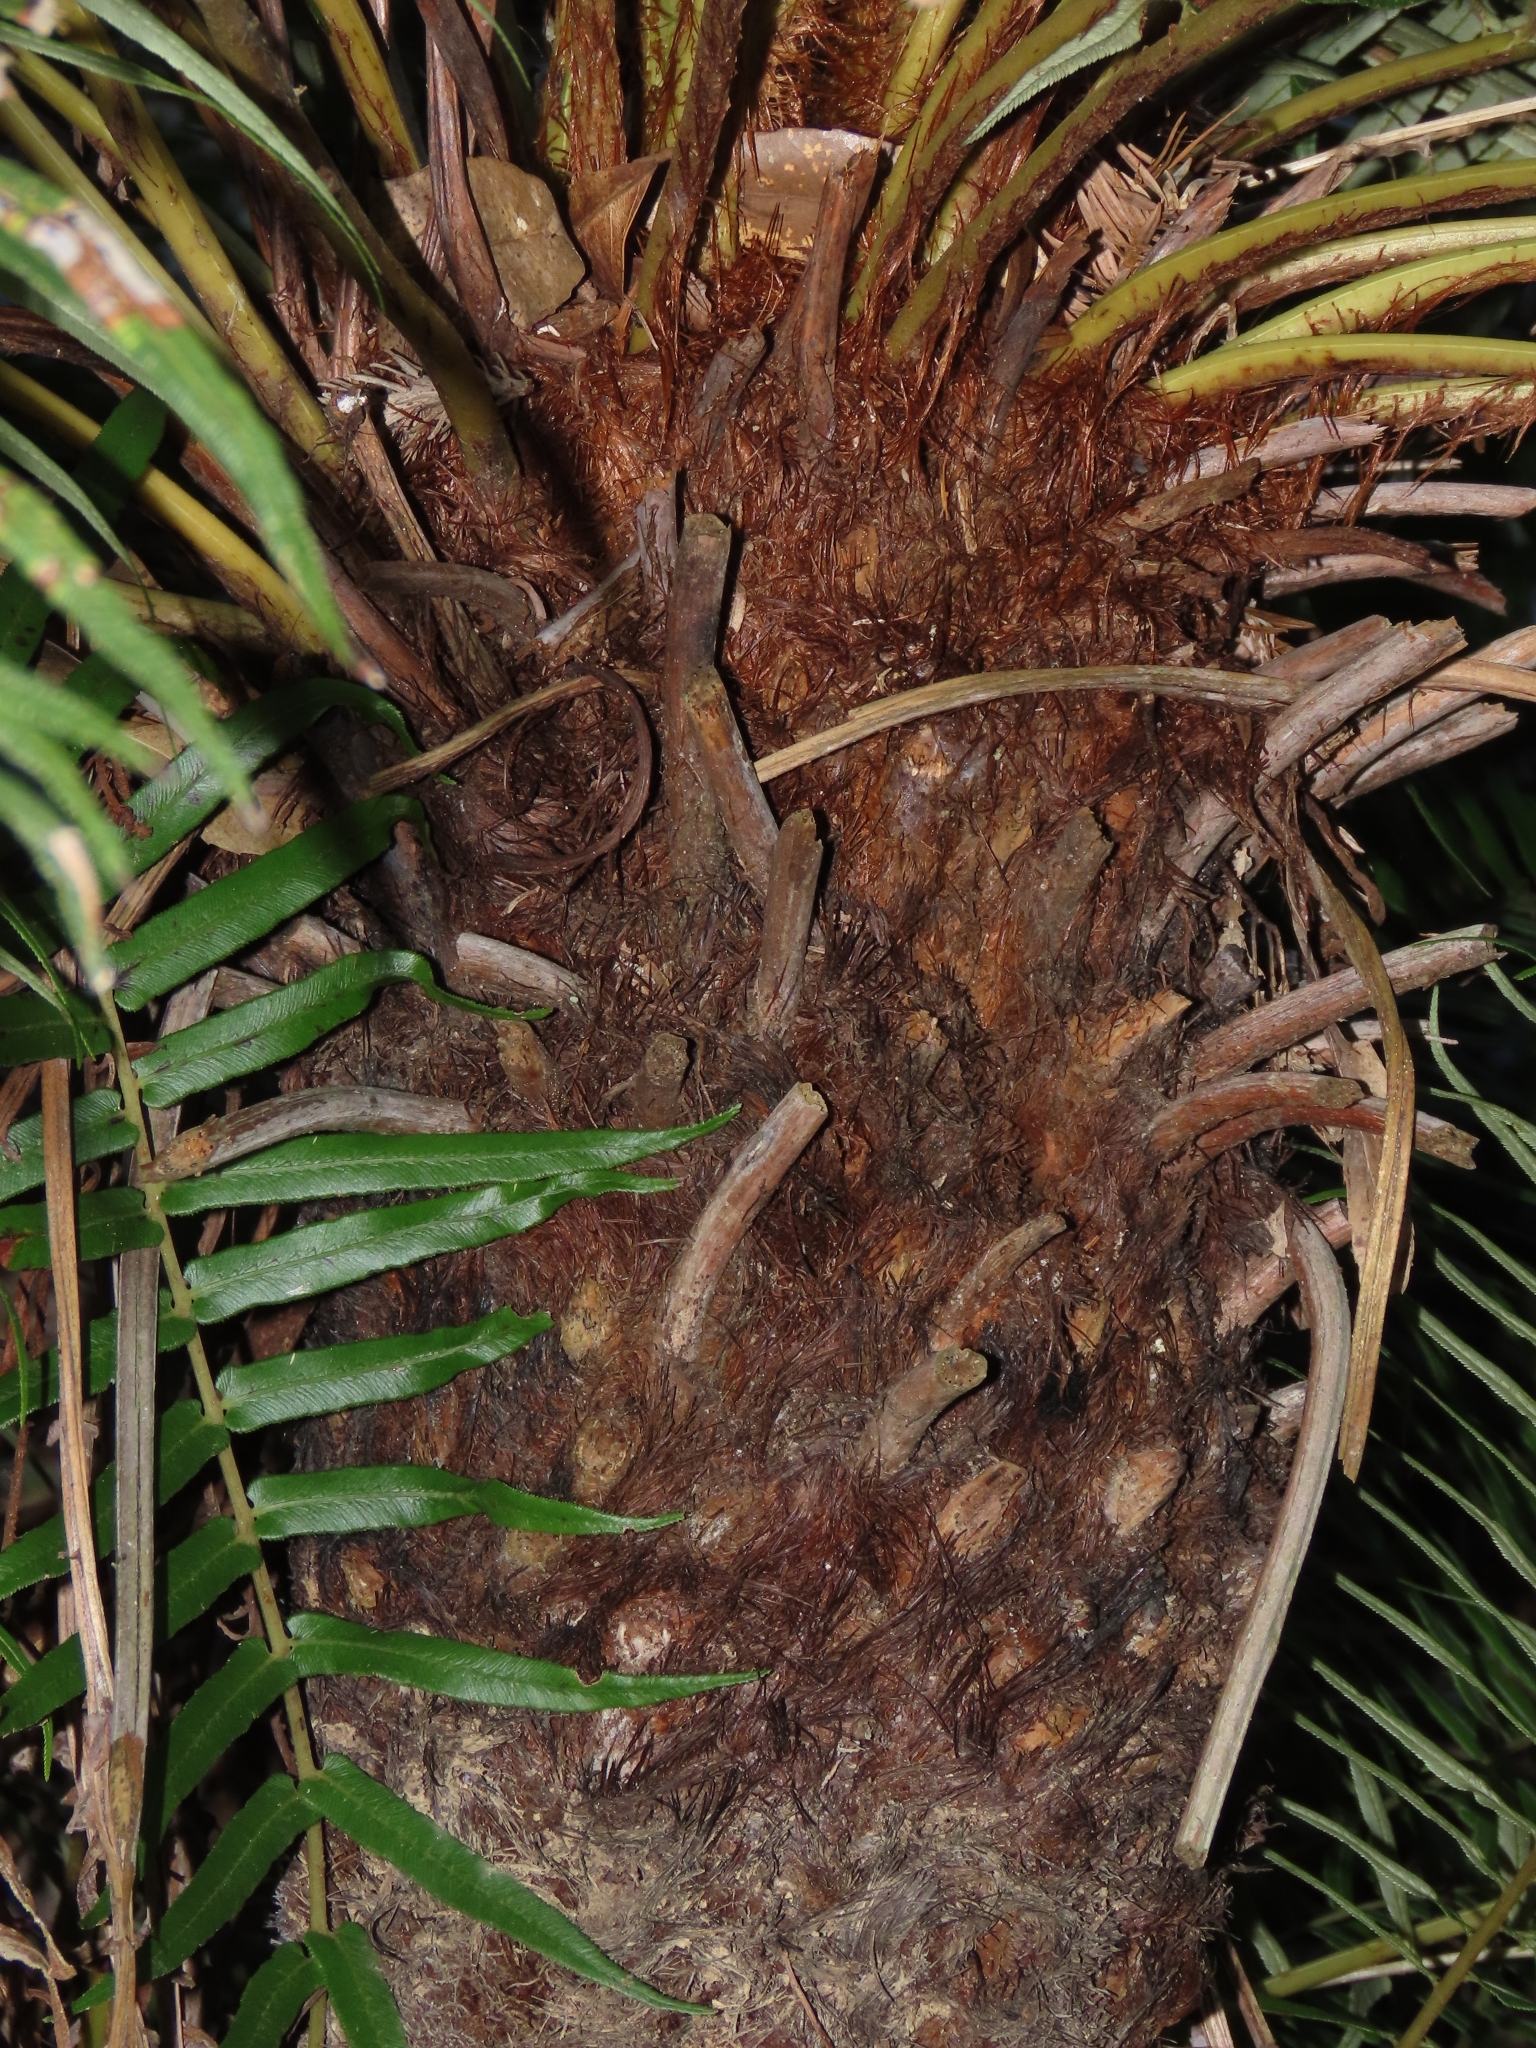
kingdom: Plantae
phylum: Tracheophyta
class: Polypodiopsida
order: Polypodiales
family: Blechnaceae
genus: Brainea
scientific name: Brainea insignis
